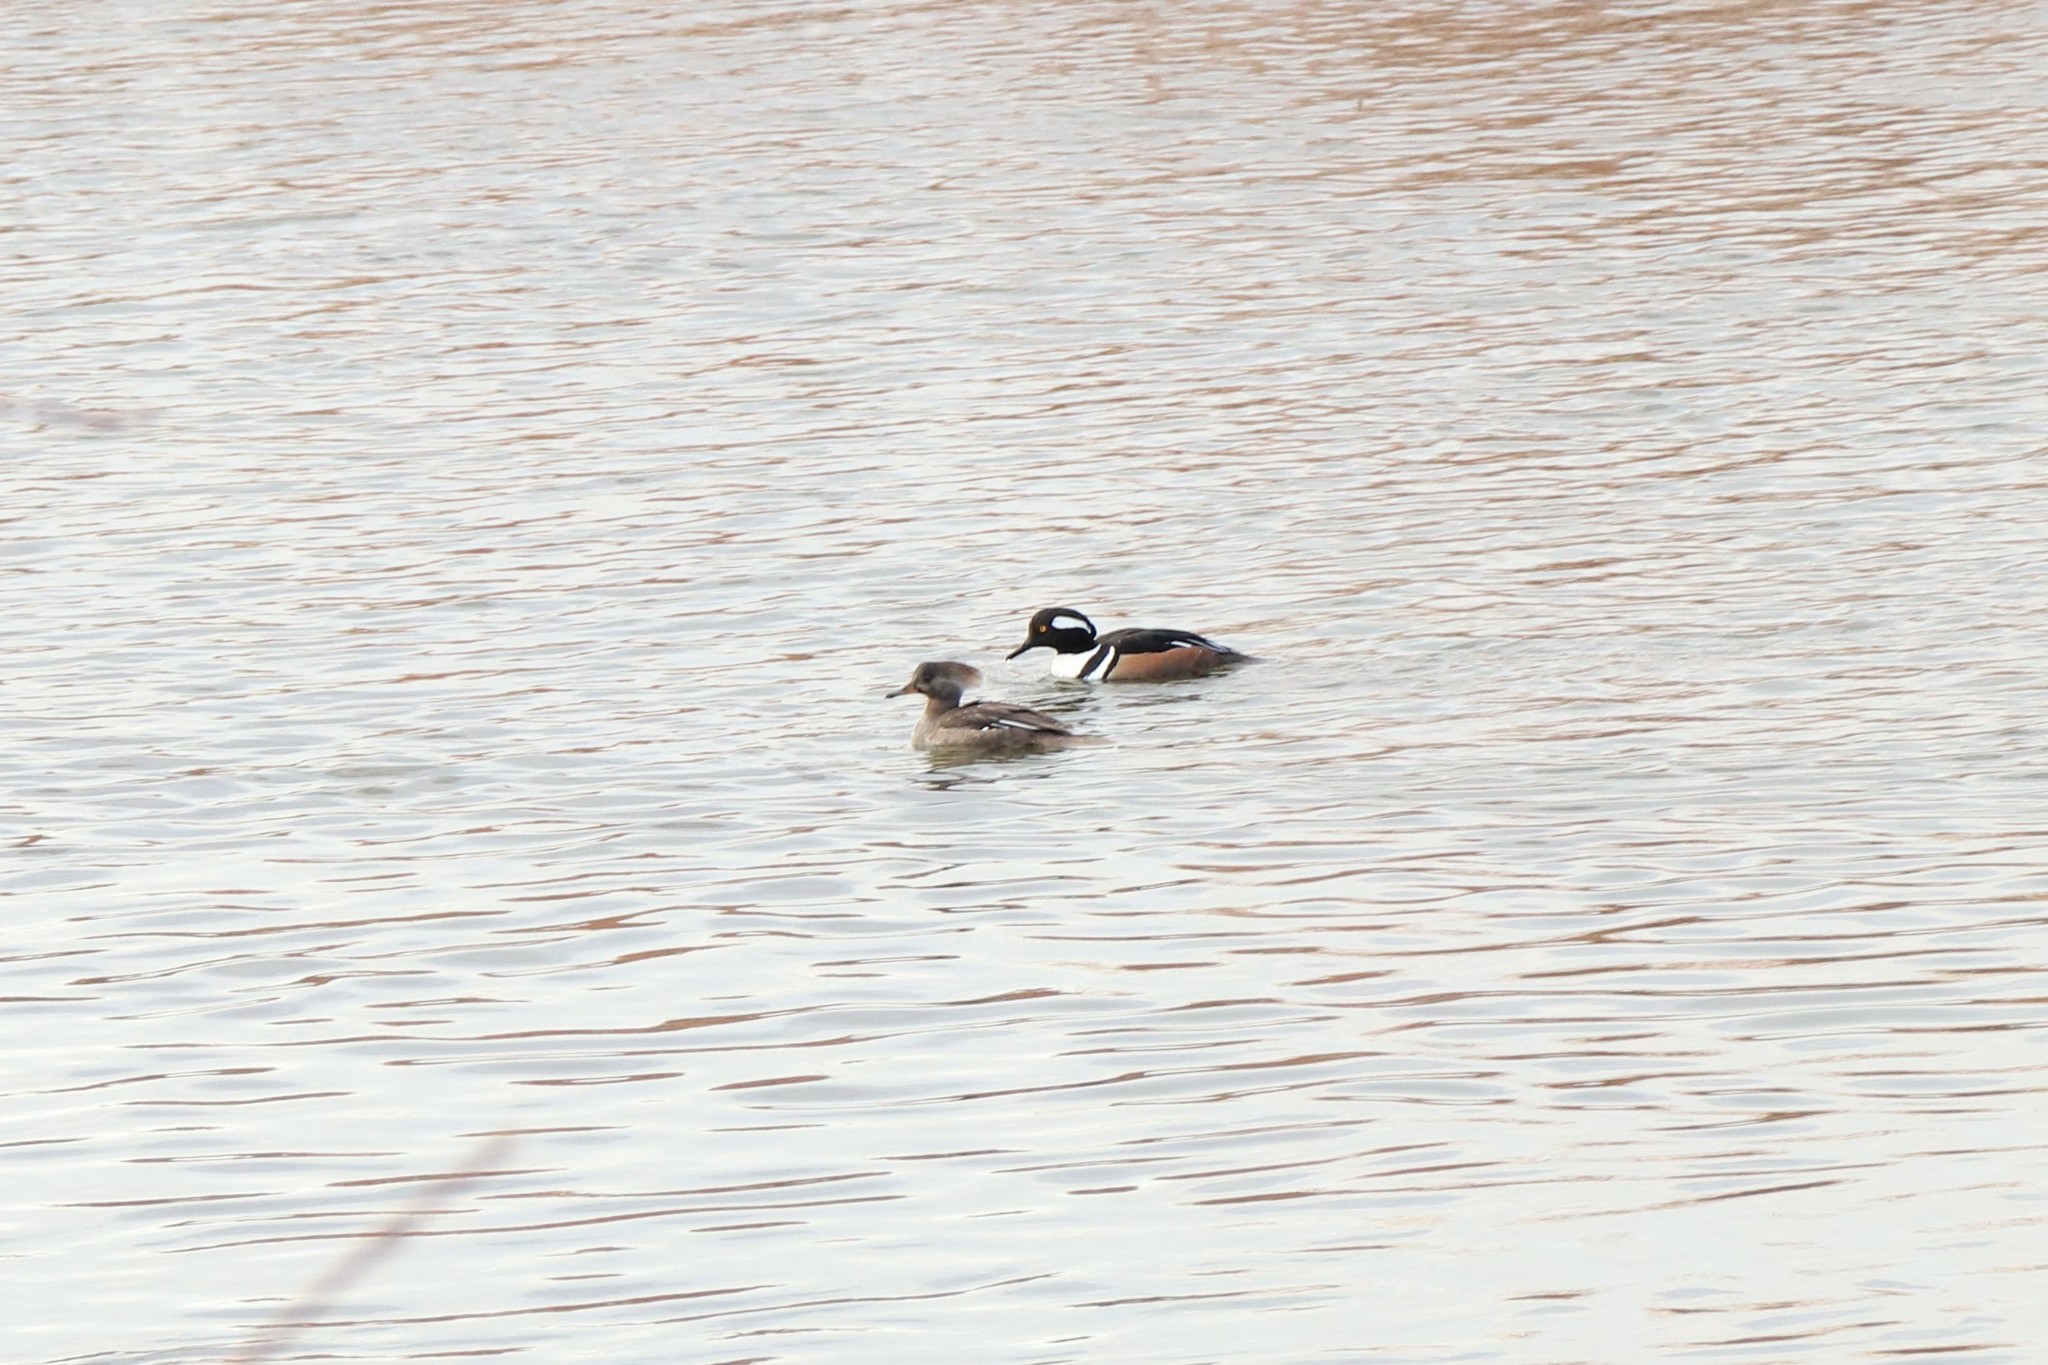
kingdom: Animalia
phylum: Chordata
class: Aves
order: Anseriformes
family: Anatidae
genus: Lophodytes
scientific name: Lophodytes cucullatus
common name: Hooded merganser
